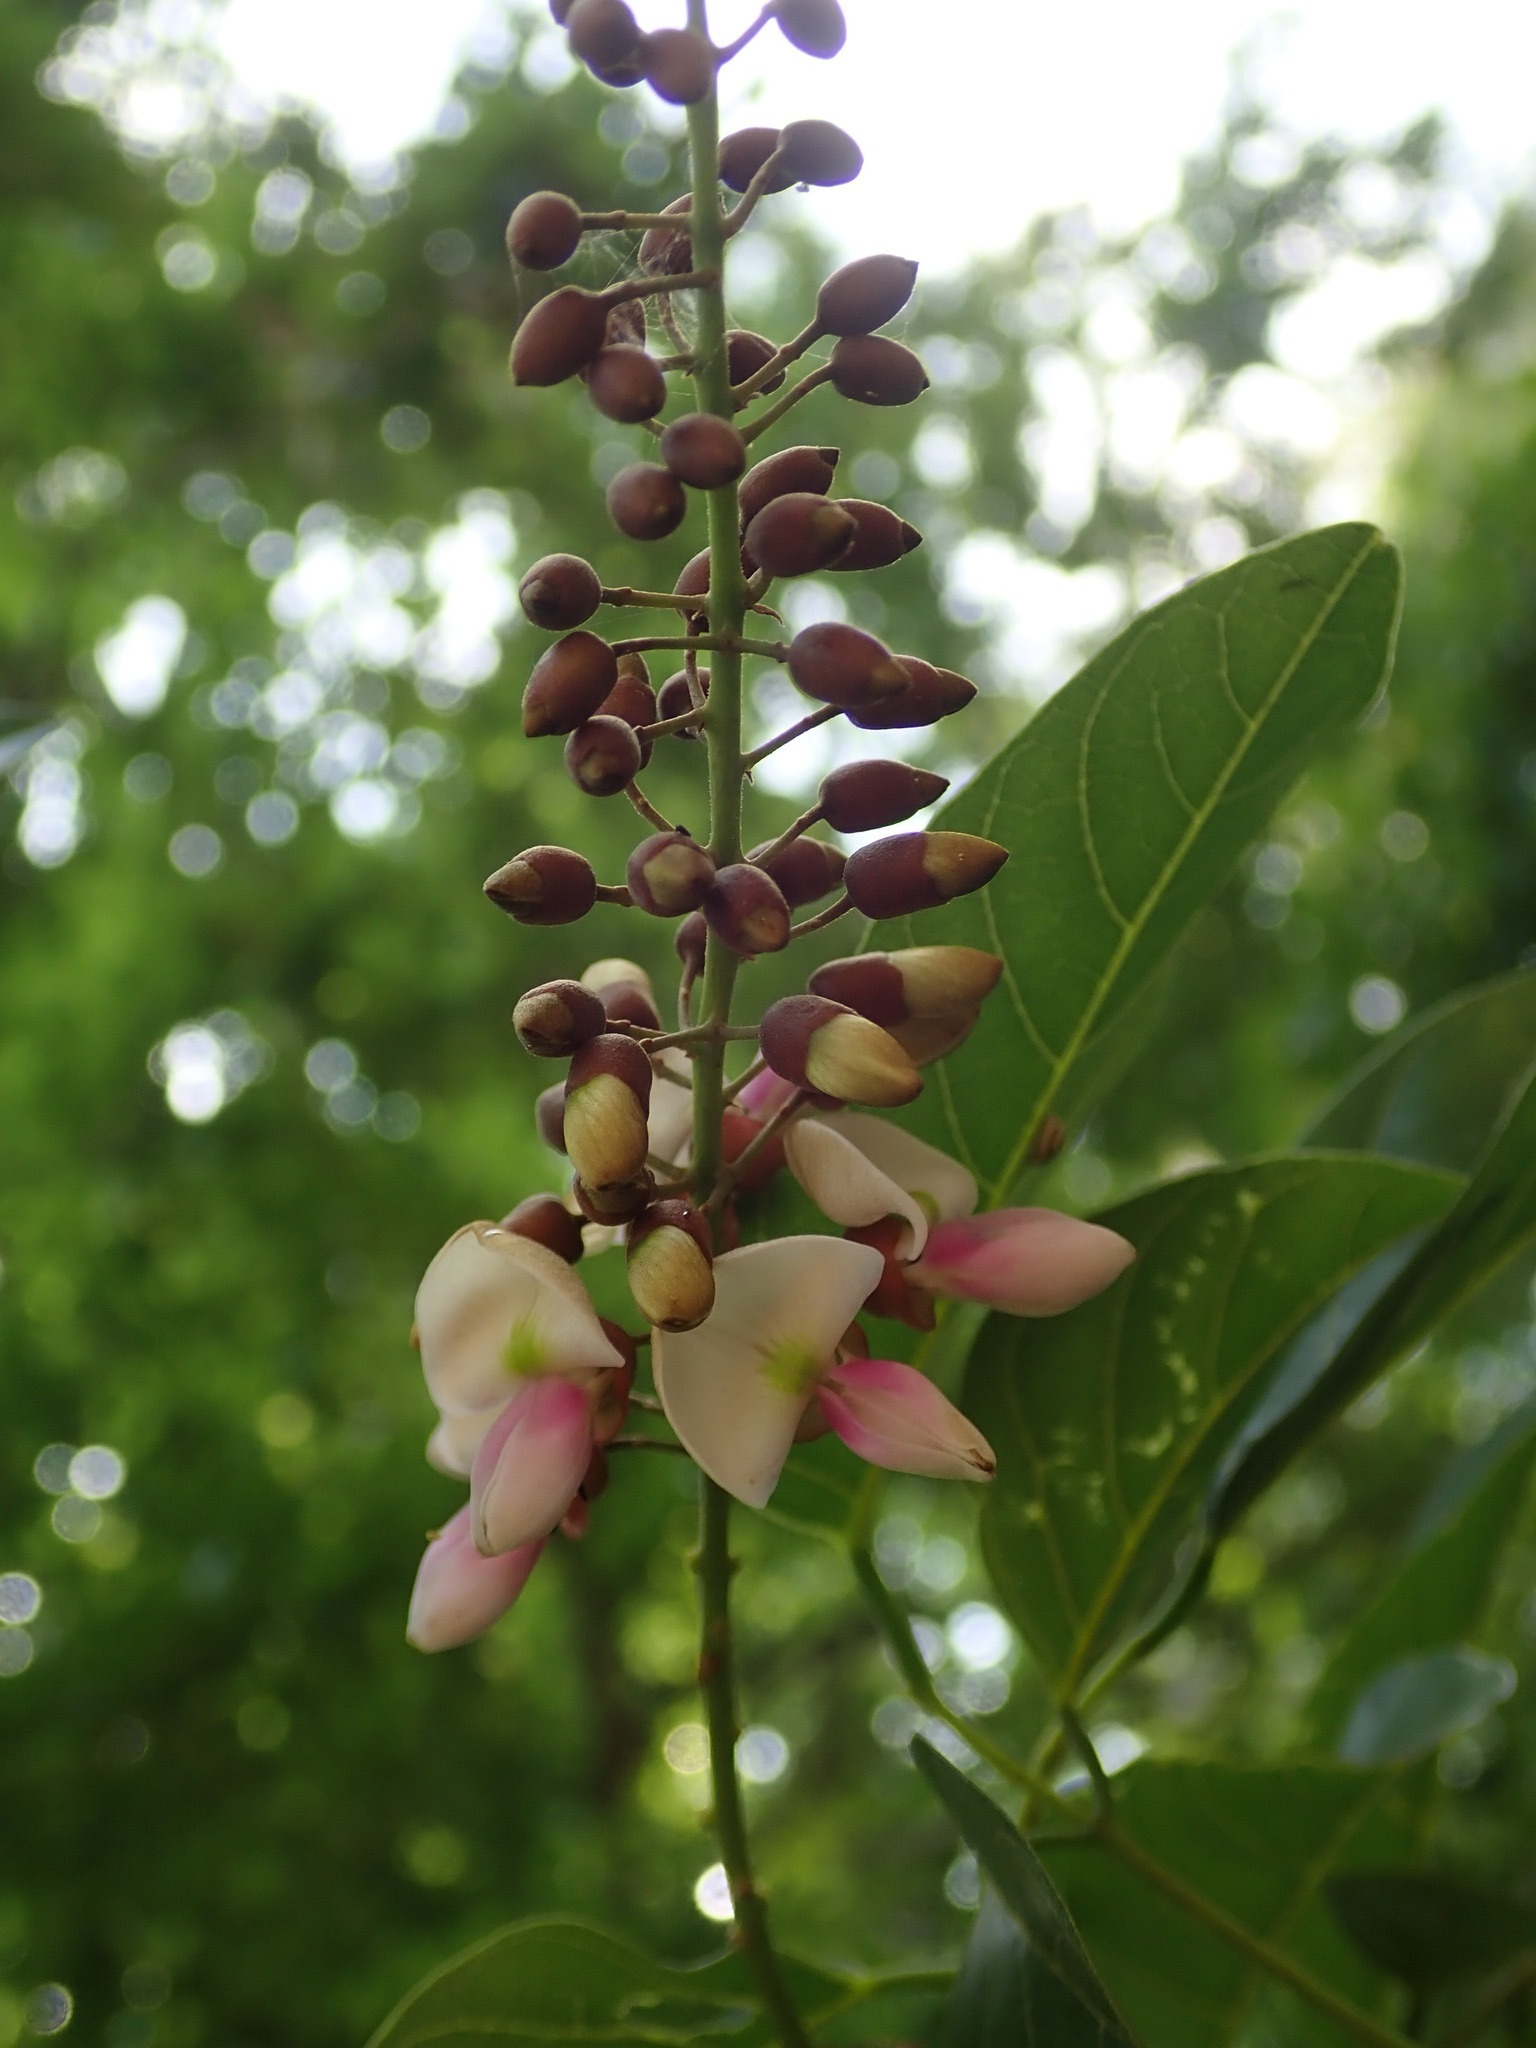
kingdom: Plantae
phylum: Tracheophyta
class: Magnoliopsida
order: Fabales
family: Fabaceae
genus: Pongamia
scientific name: Pongamia pinnata
